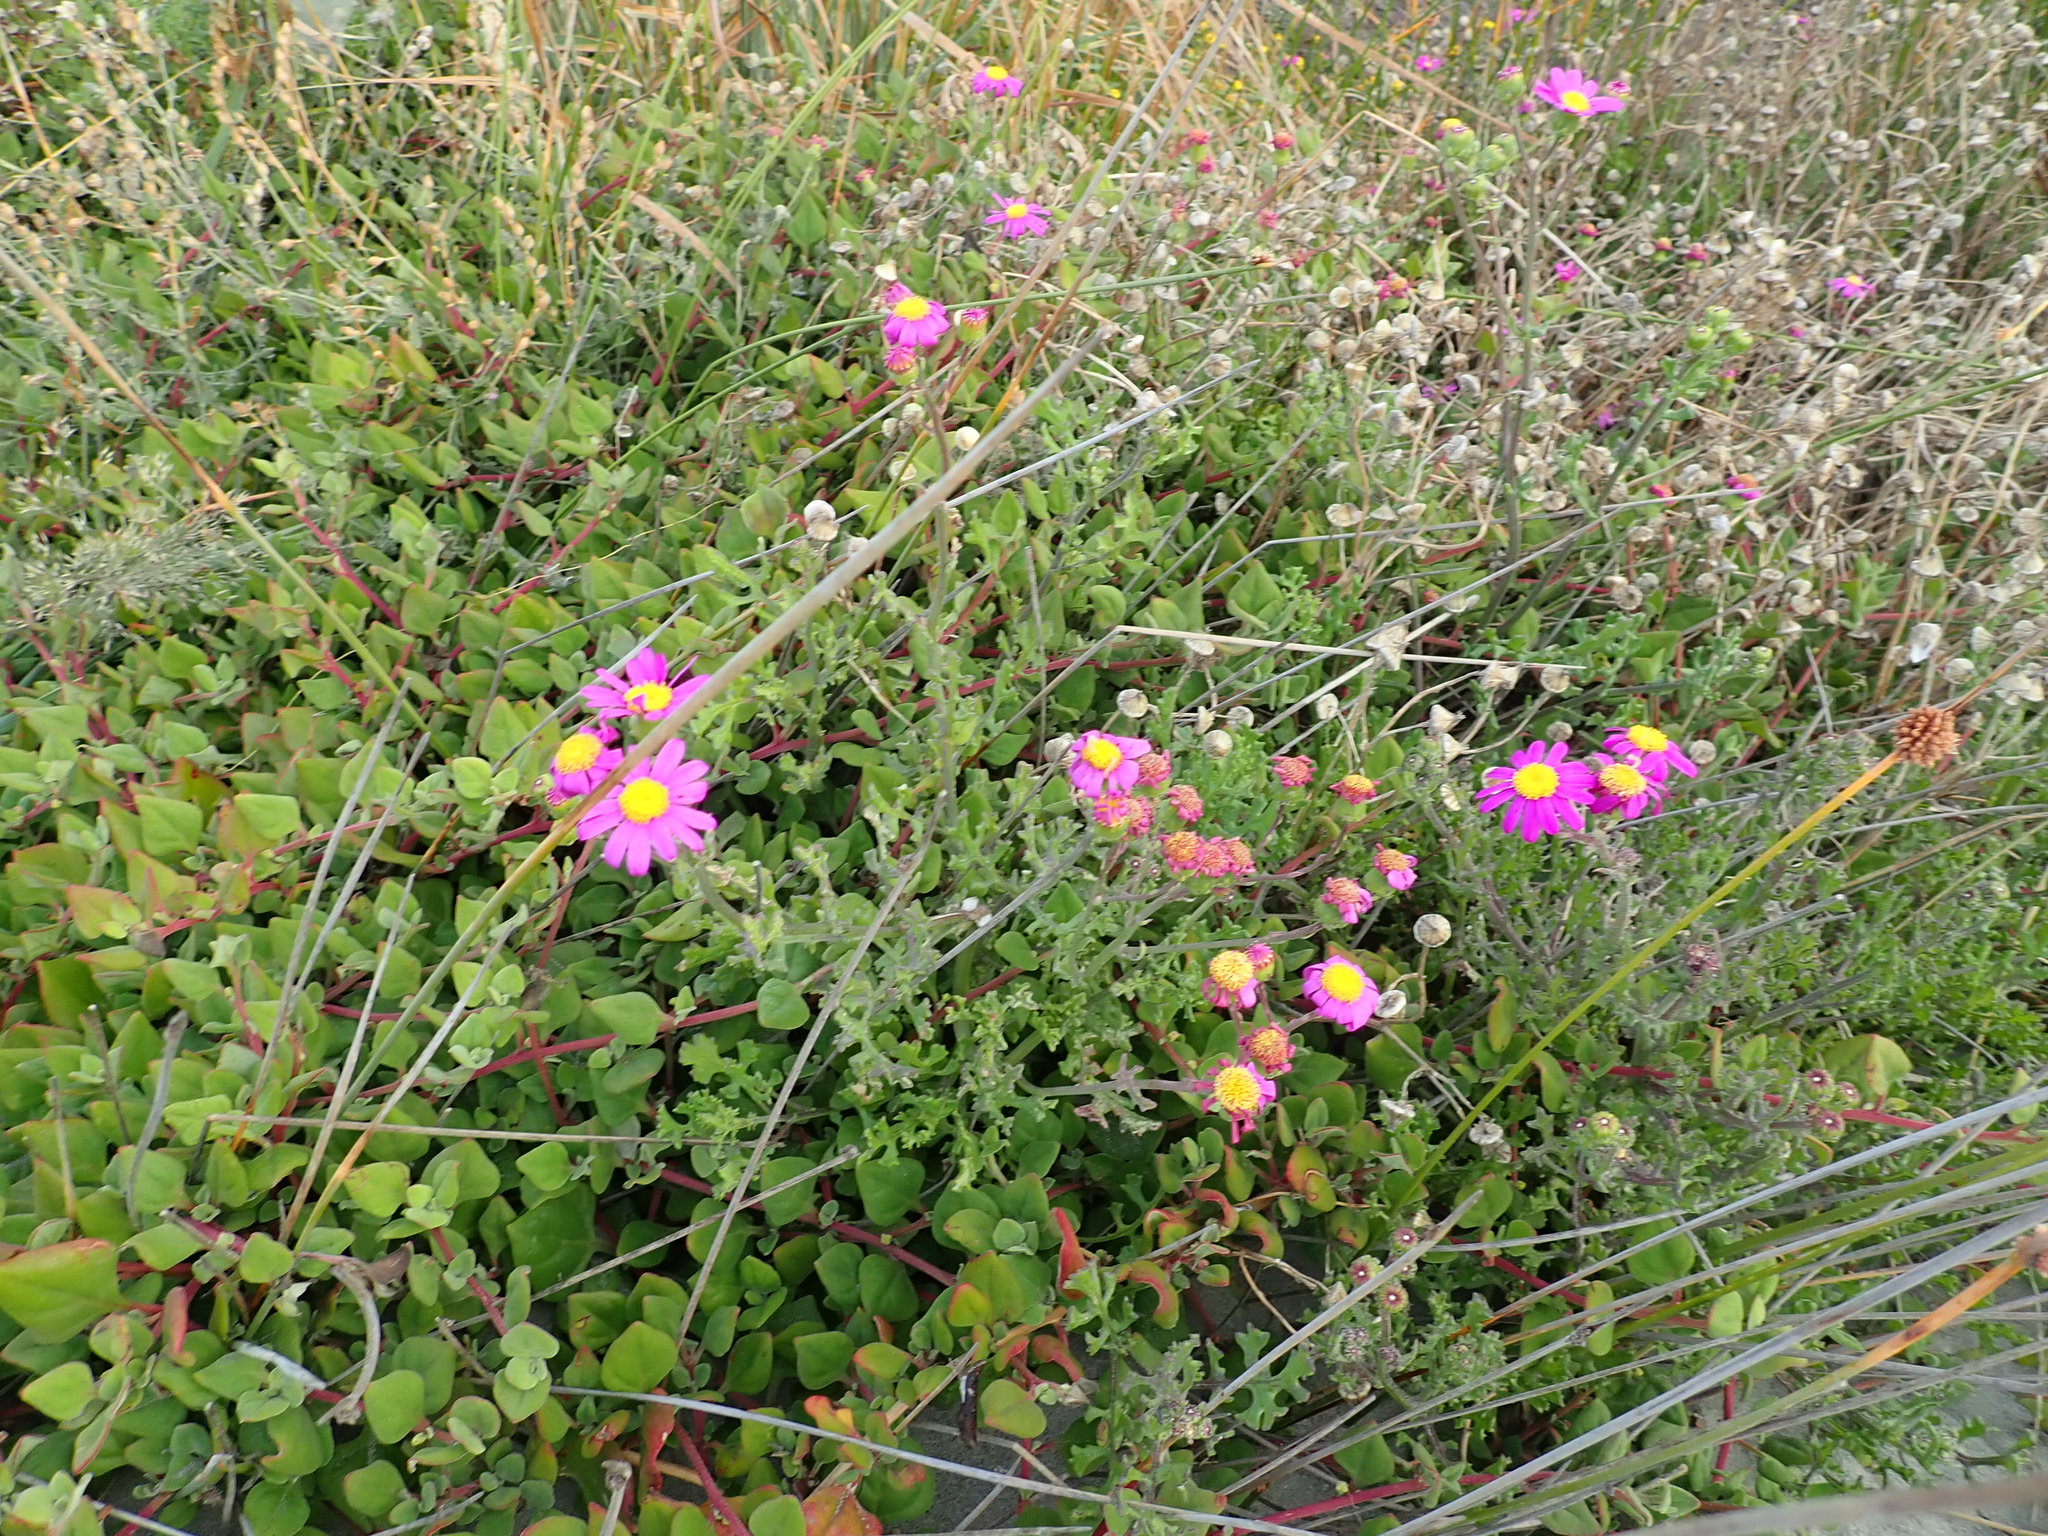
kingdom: Plantae
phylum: Tracheophyta
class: Magnoliopsida
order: Asterales
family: Asteraceae
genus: Senecio
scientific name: Senecio elegans
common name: Purple groundsel
